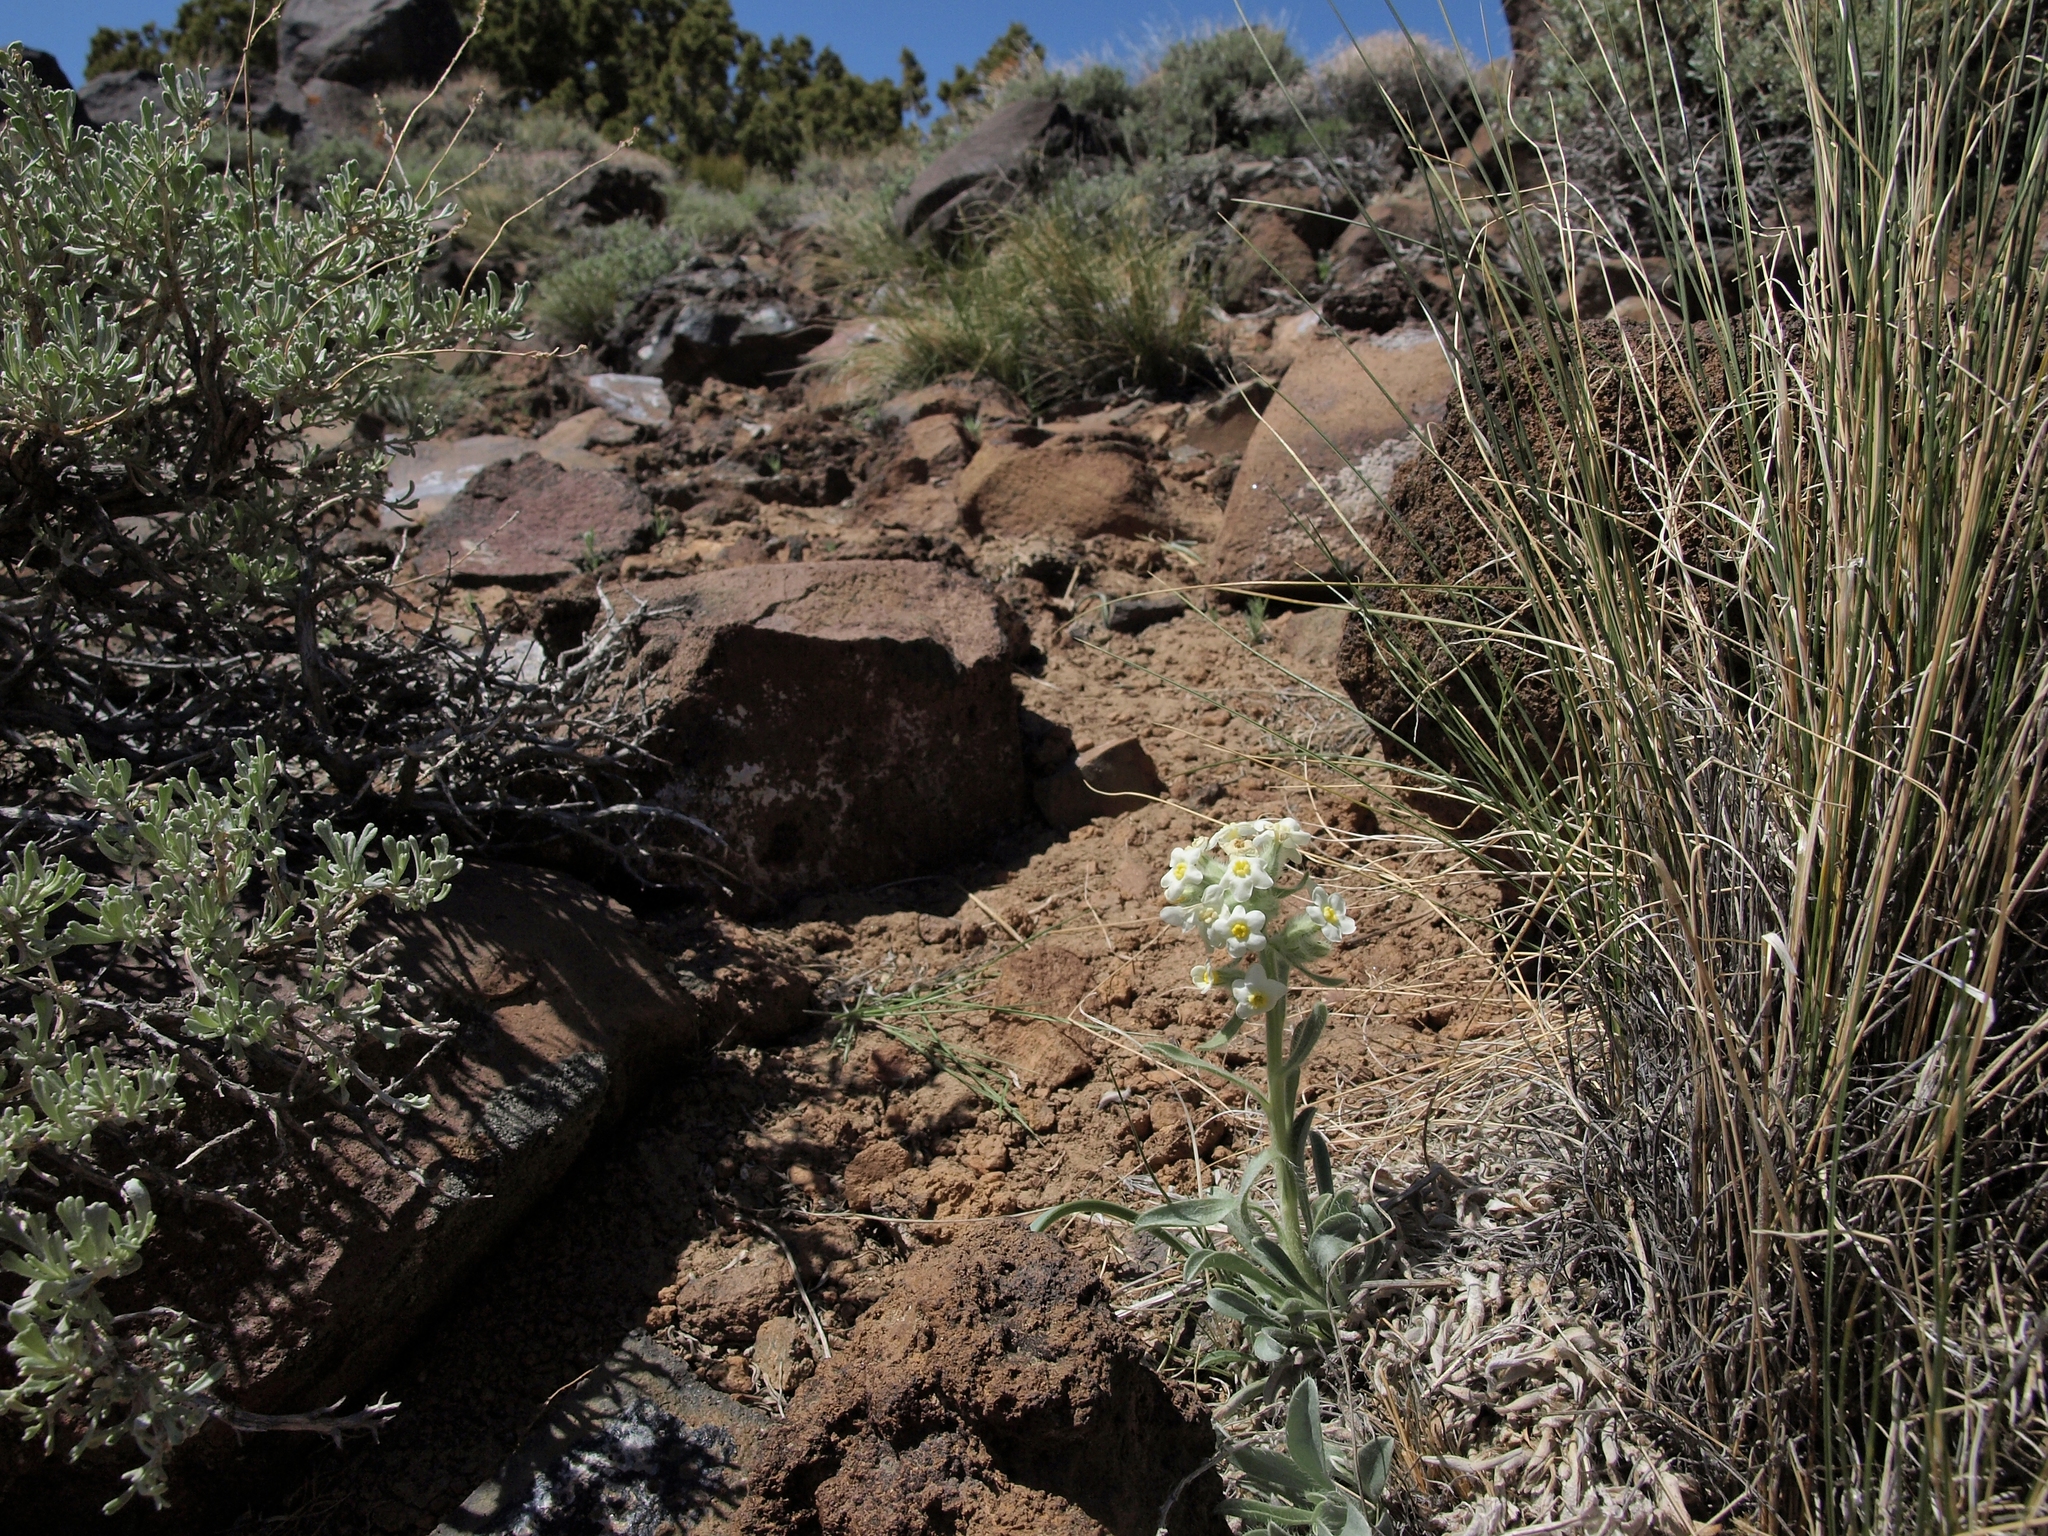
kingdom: Plantae
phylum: Tracheophyta
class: Magnoliopsida
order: Boraginales
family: Boraginaceae
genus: Oreocarya
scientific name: Oreocarya flavoculata
